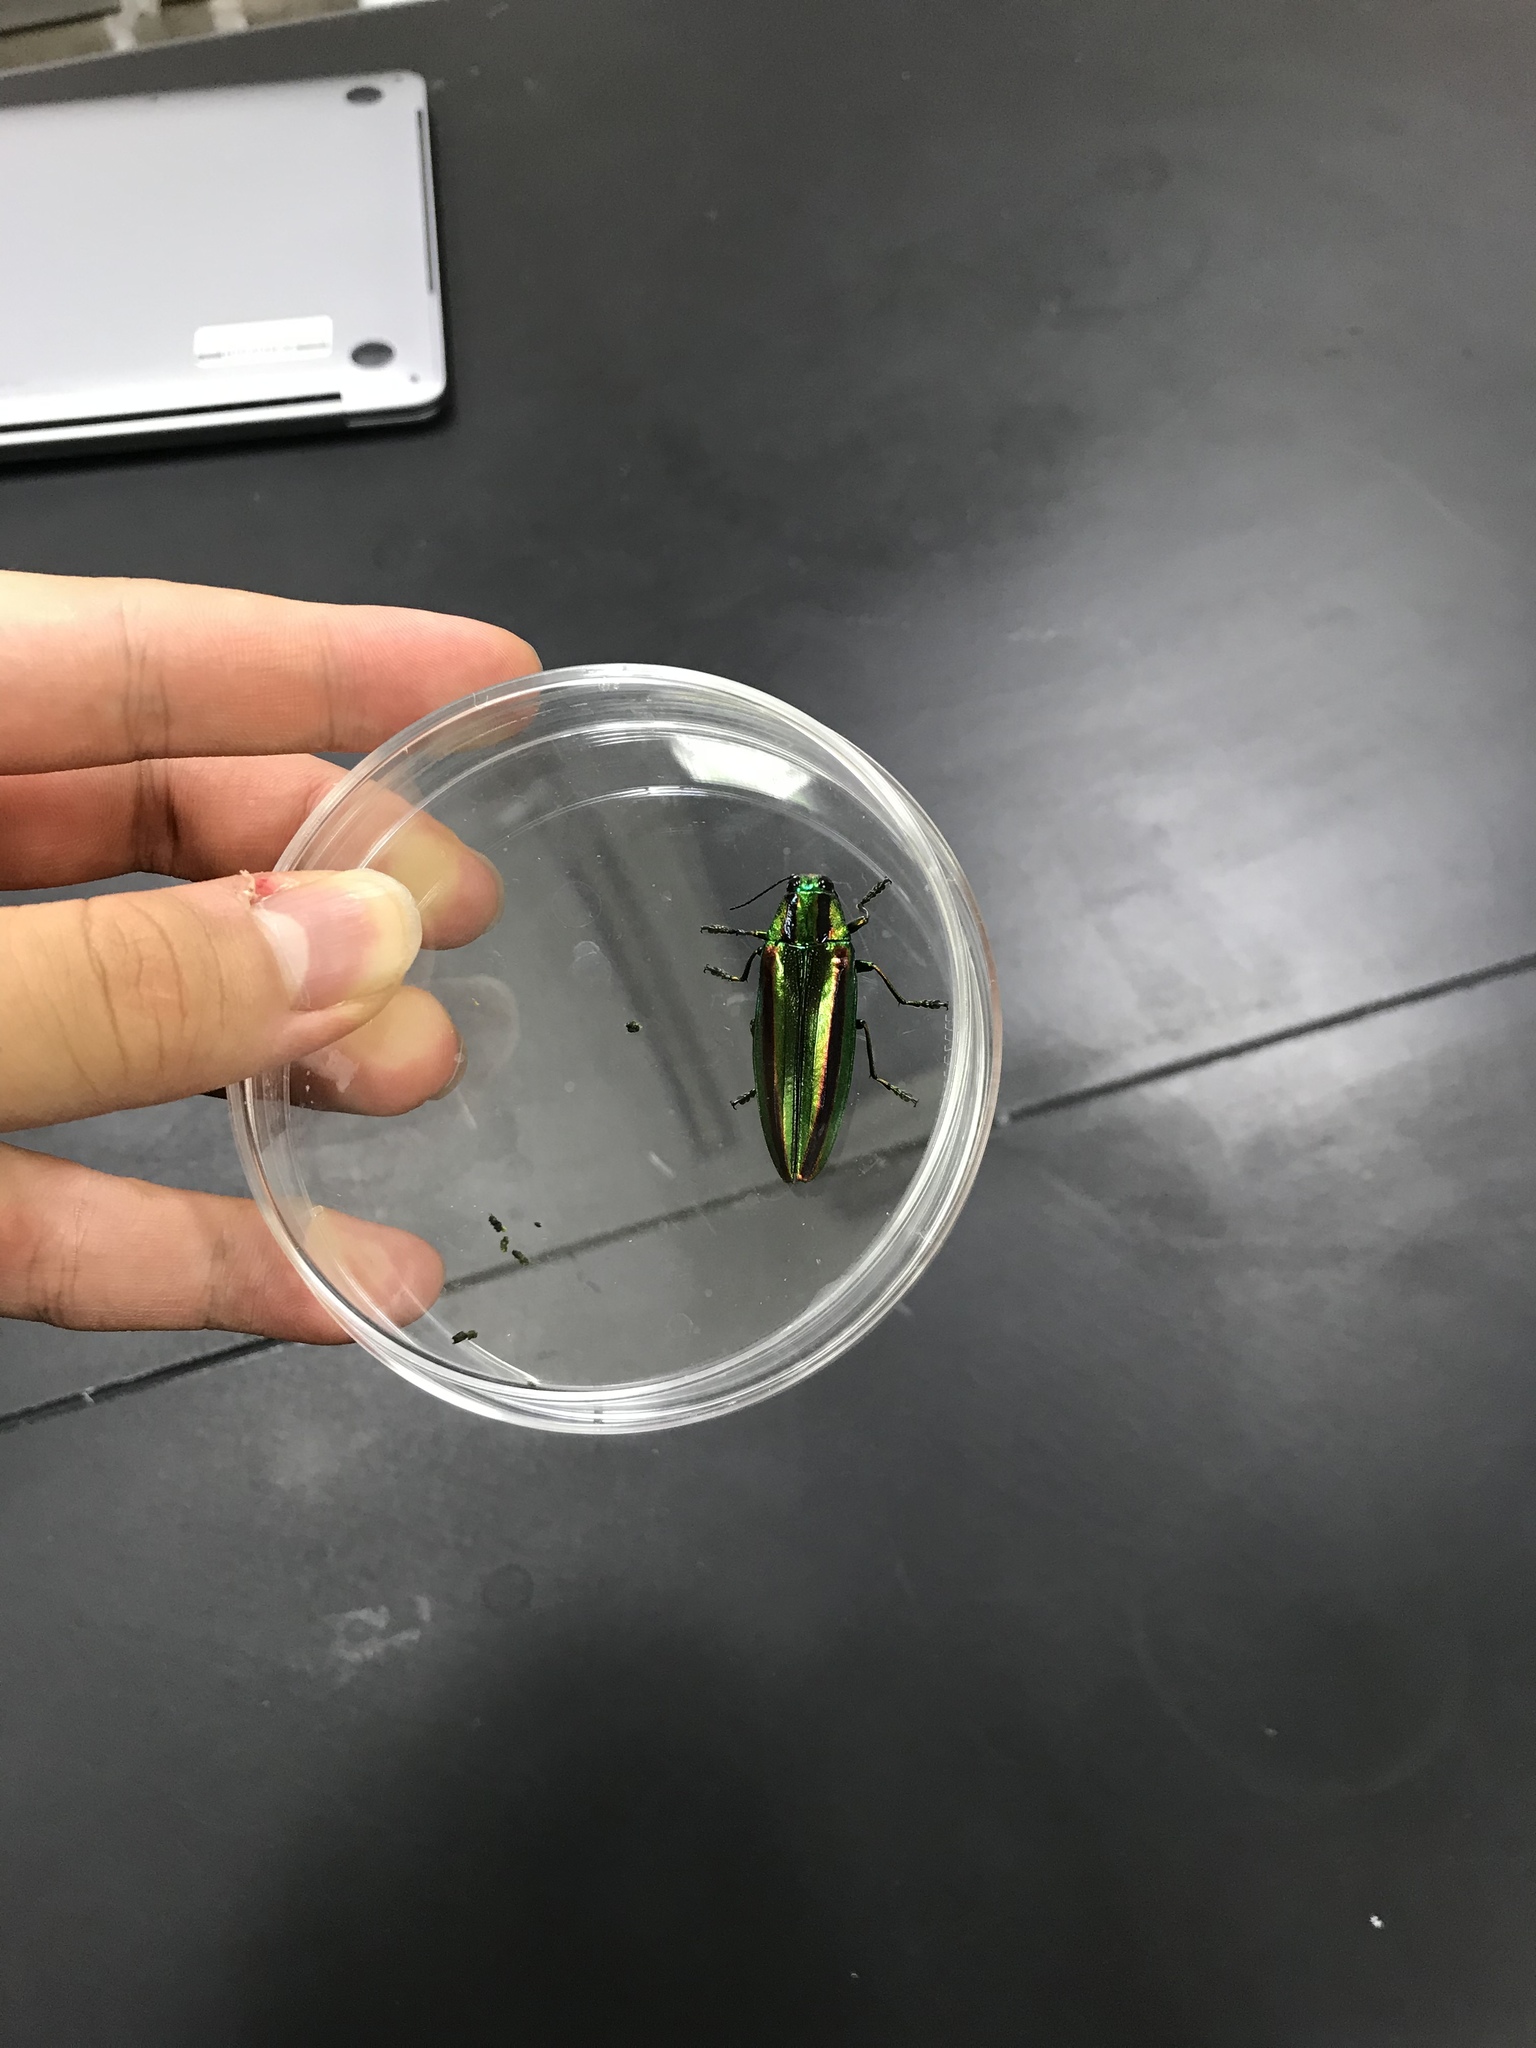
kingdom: Animalia
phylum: Arthropoda
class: Insecta
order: Coleoptera
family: Buprestidae
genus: Chrysochroa
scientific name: Chrysochroa fulgidissima
